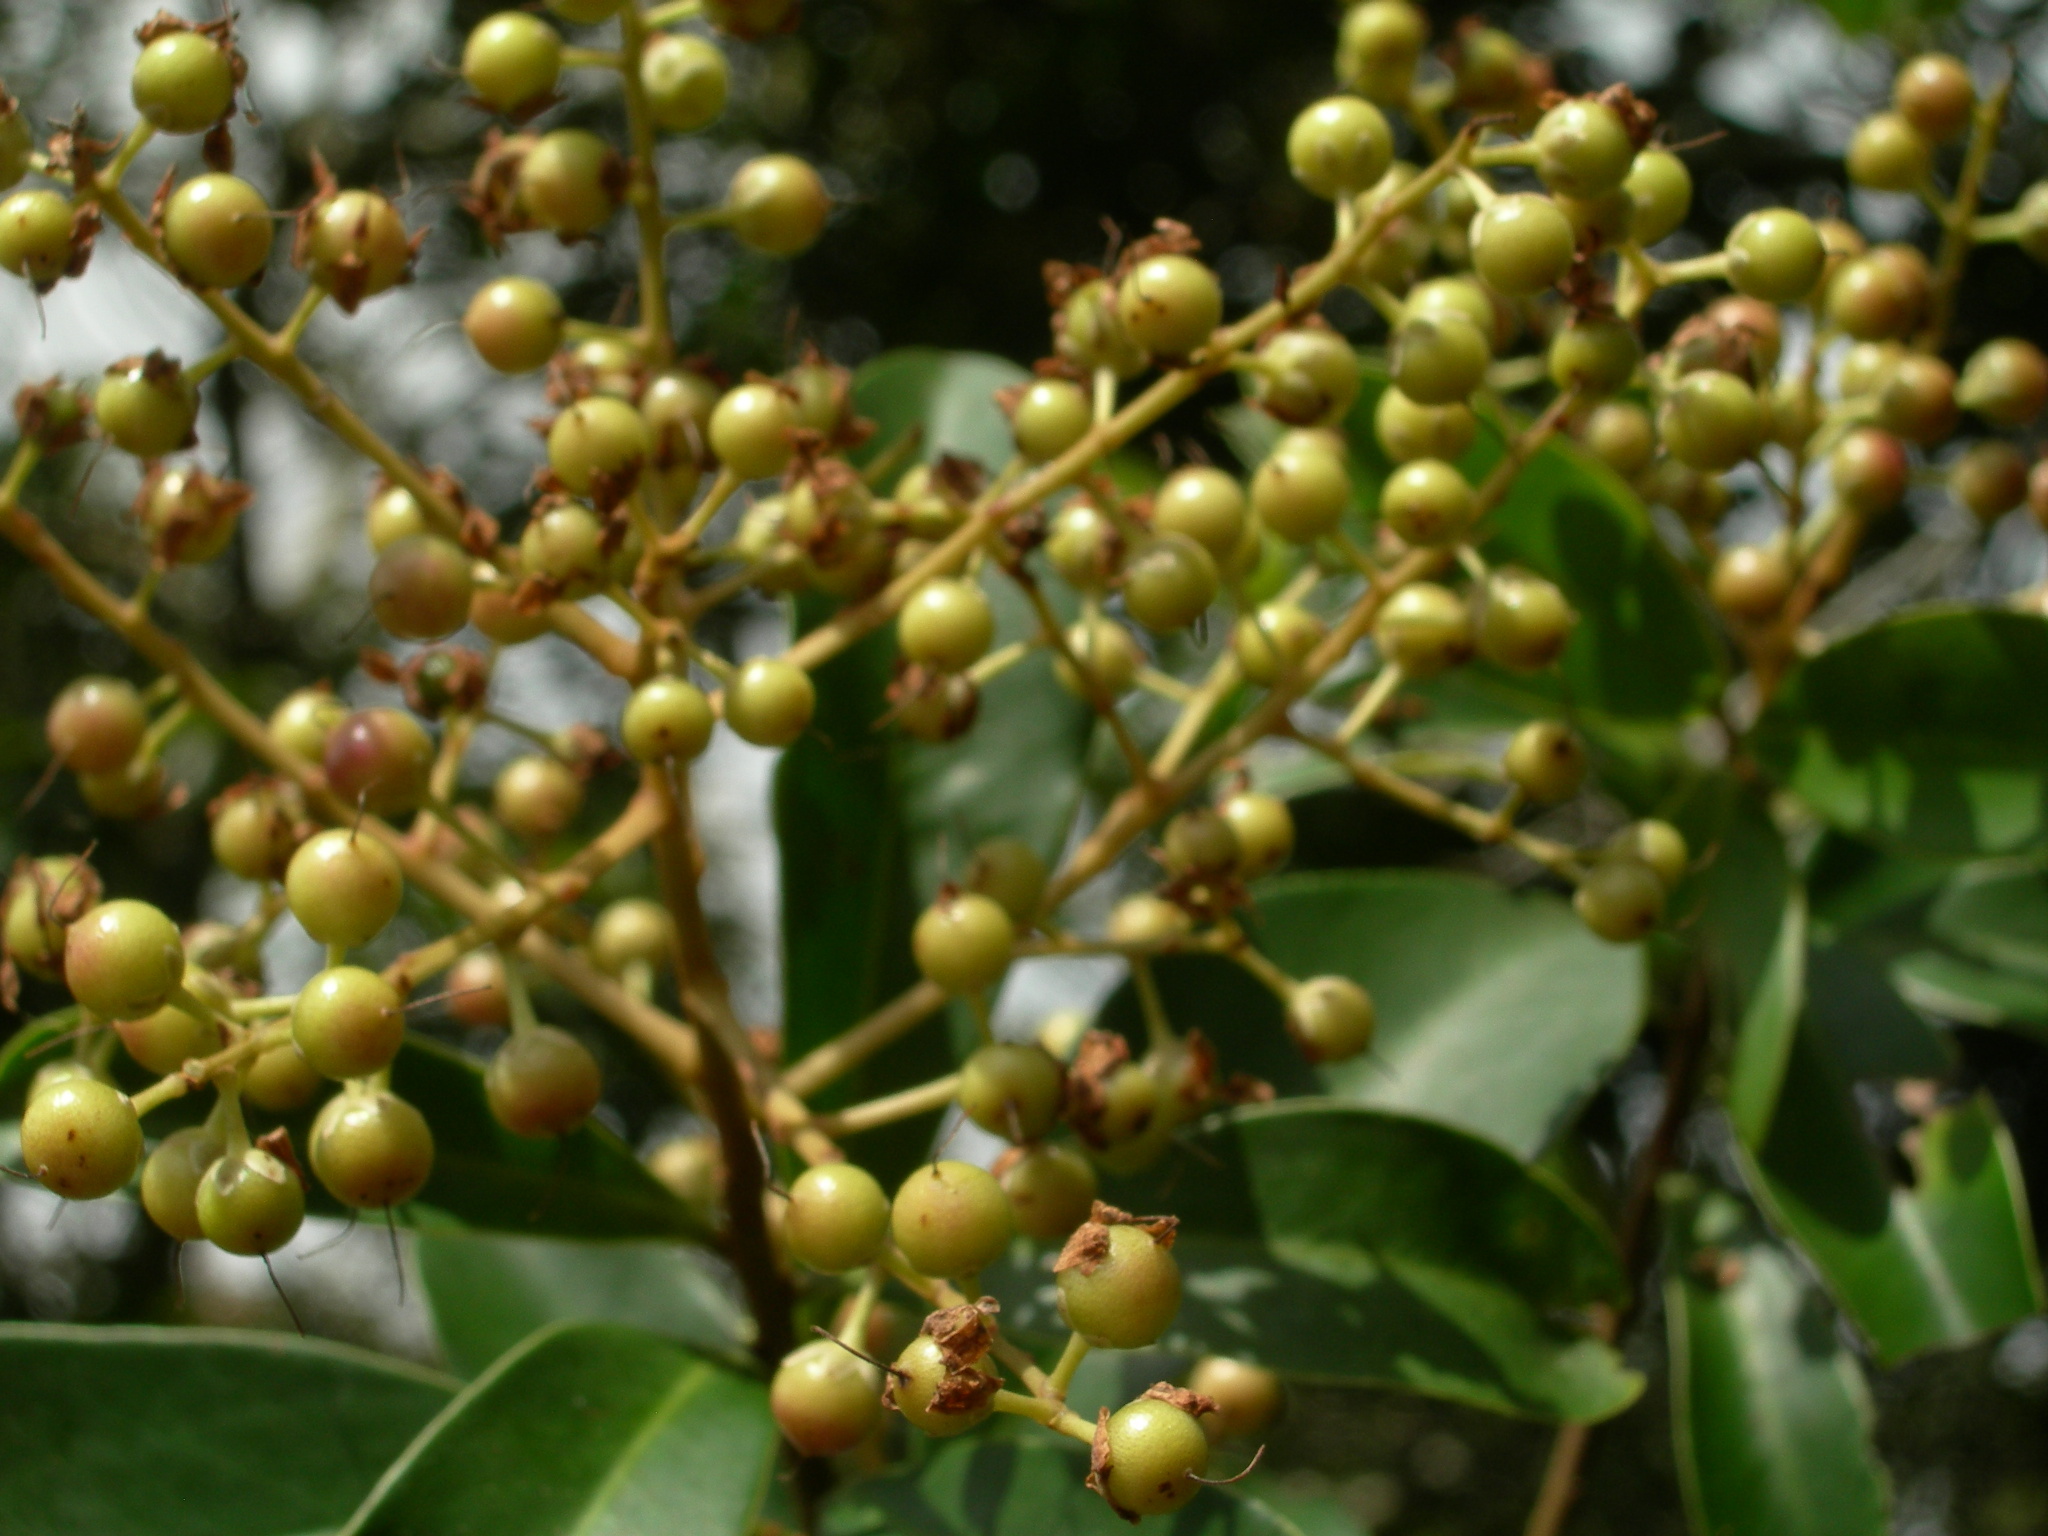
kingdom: Plantae
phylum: Tracheophyta
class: Magnoliopsida
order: Ericales
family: Primulaceae
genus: Ardisia
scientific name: Ardisia bracteosa
